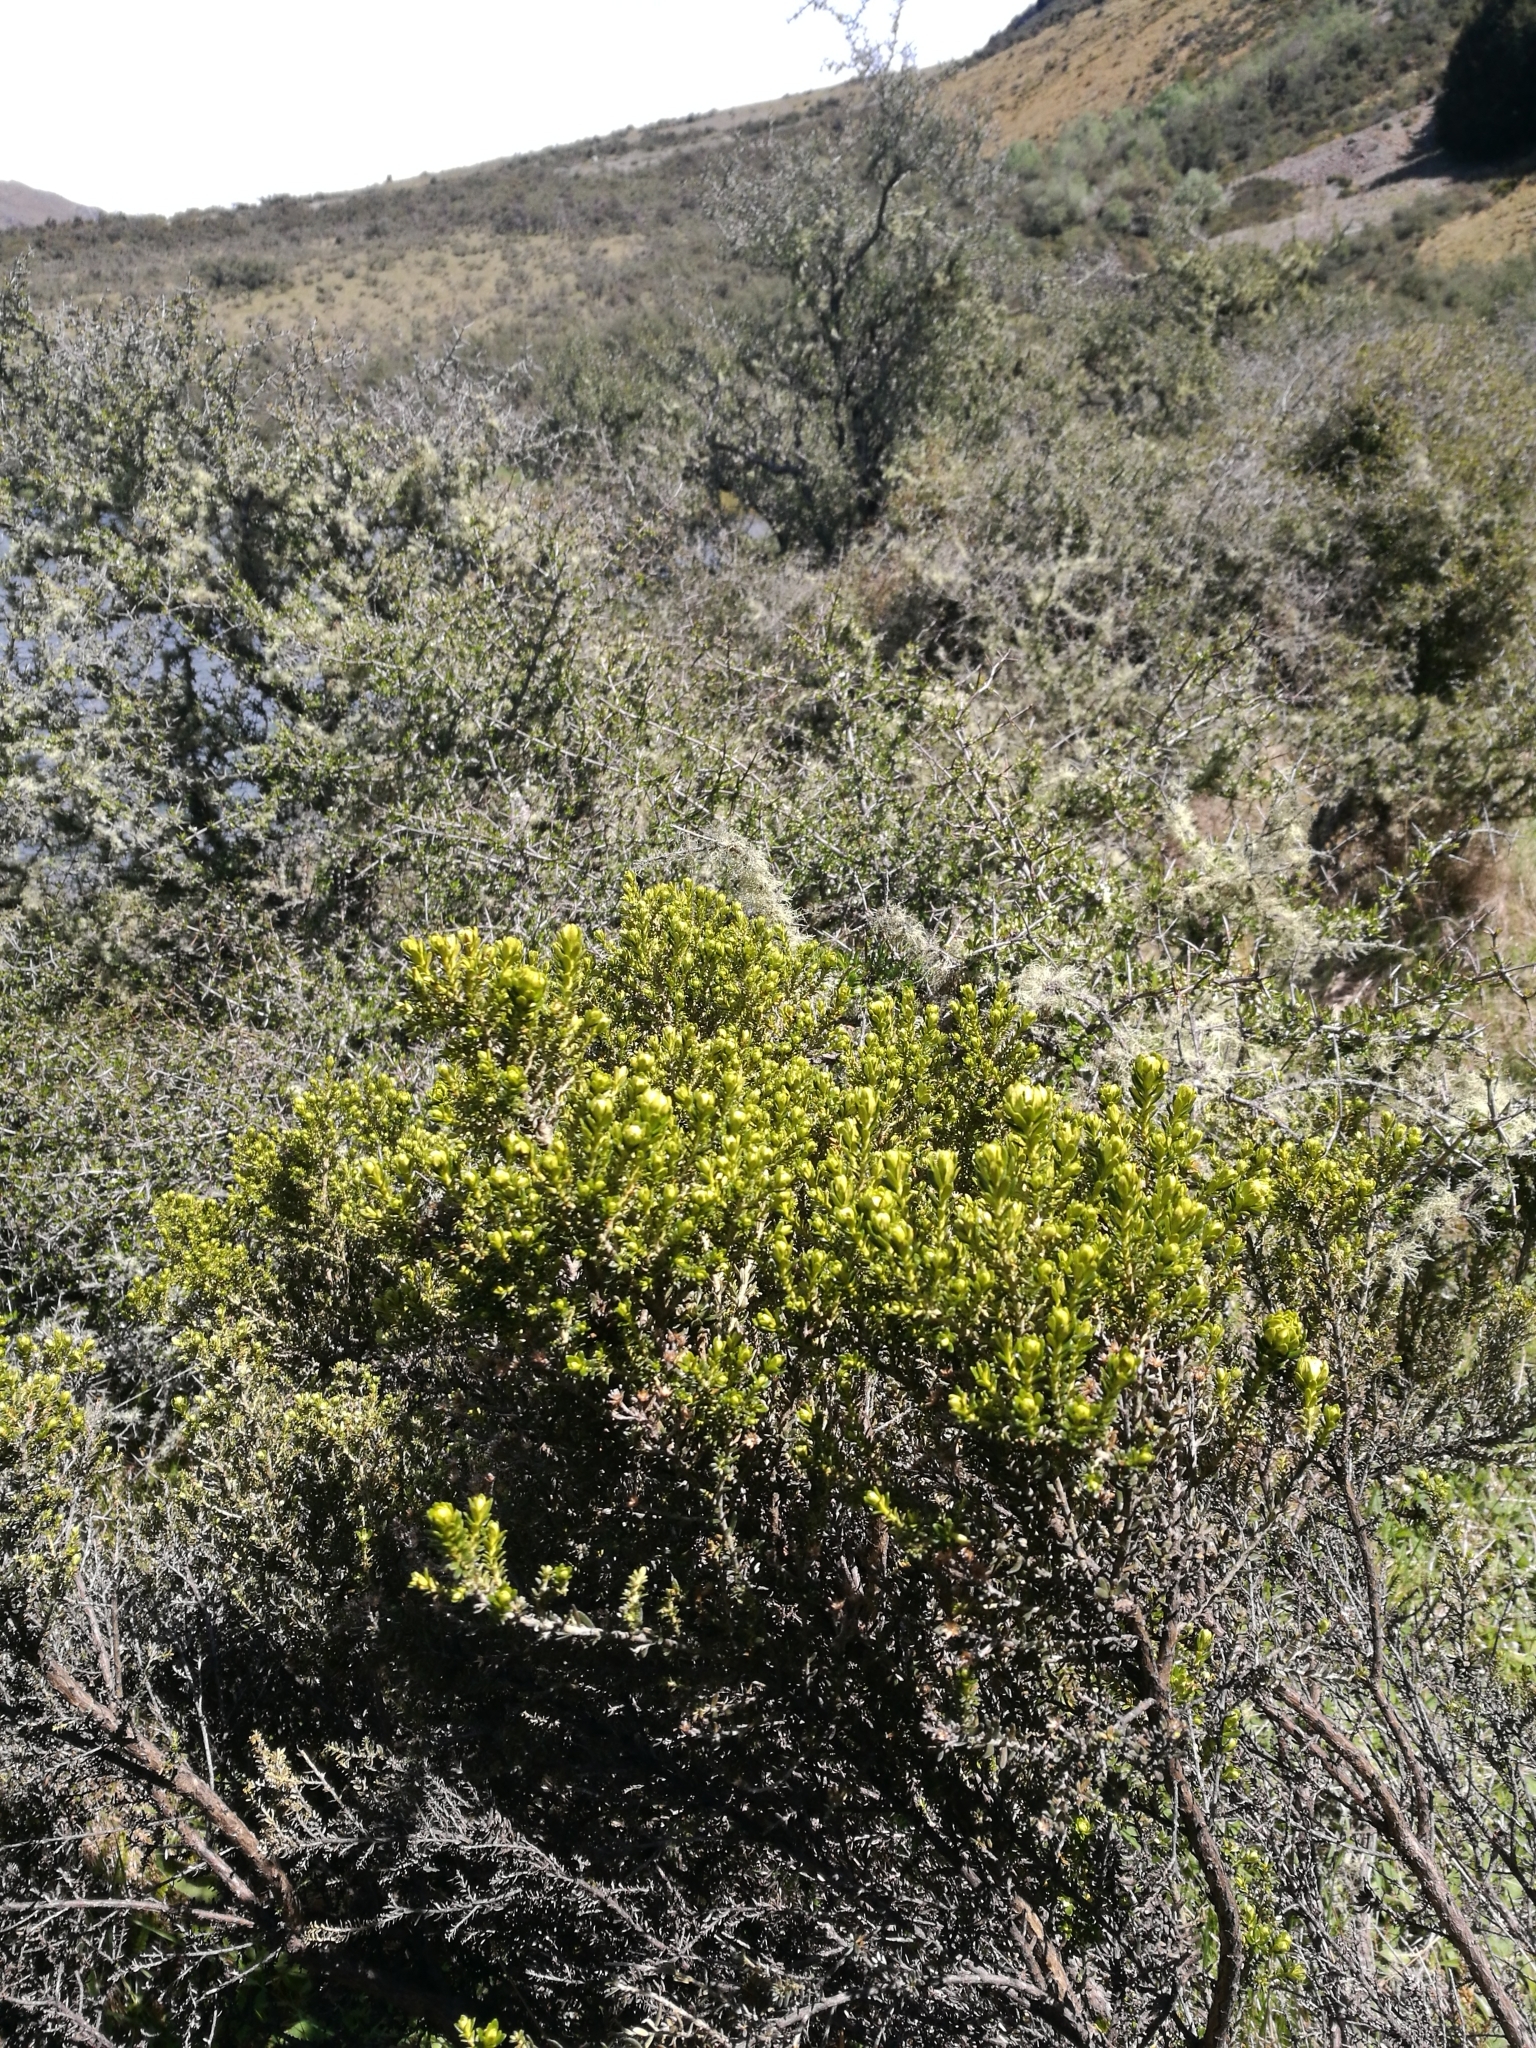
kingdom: Plantae
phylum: Tracheophyta
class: Magnoliopsida
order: Asterales
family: Asteraceae
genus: Ozothamnus
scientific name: Ozothamnus leptophyllus
